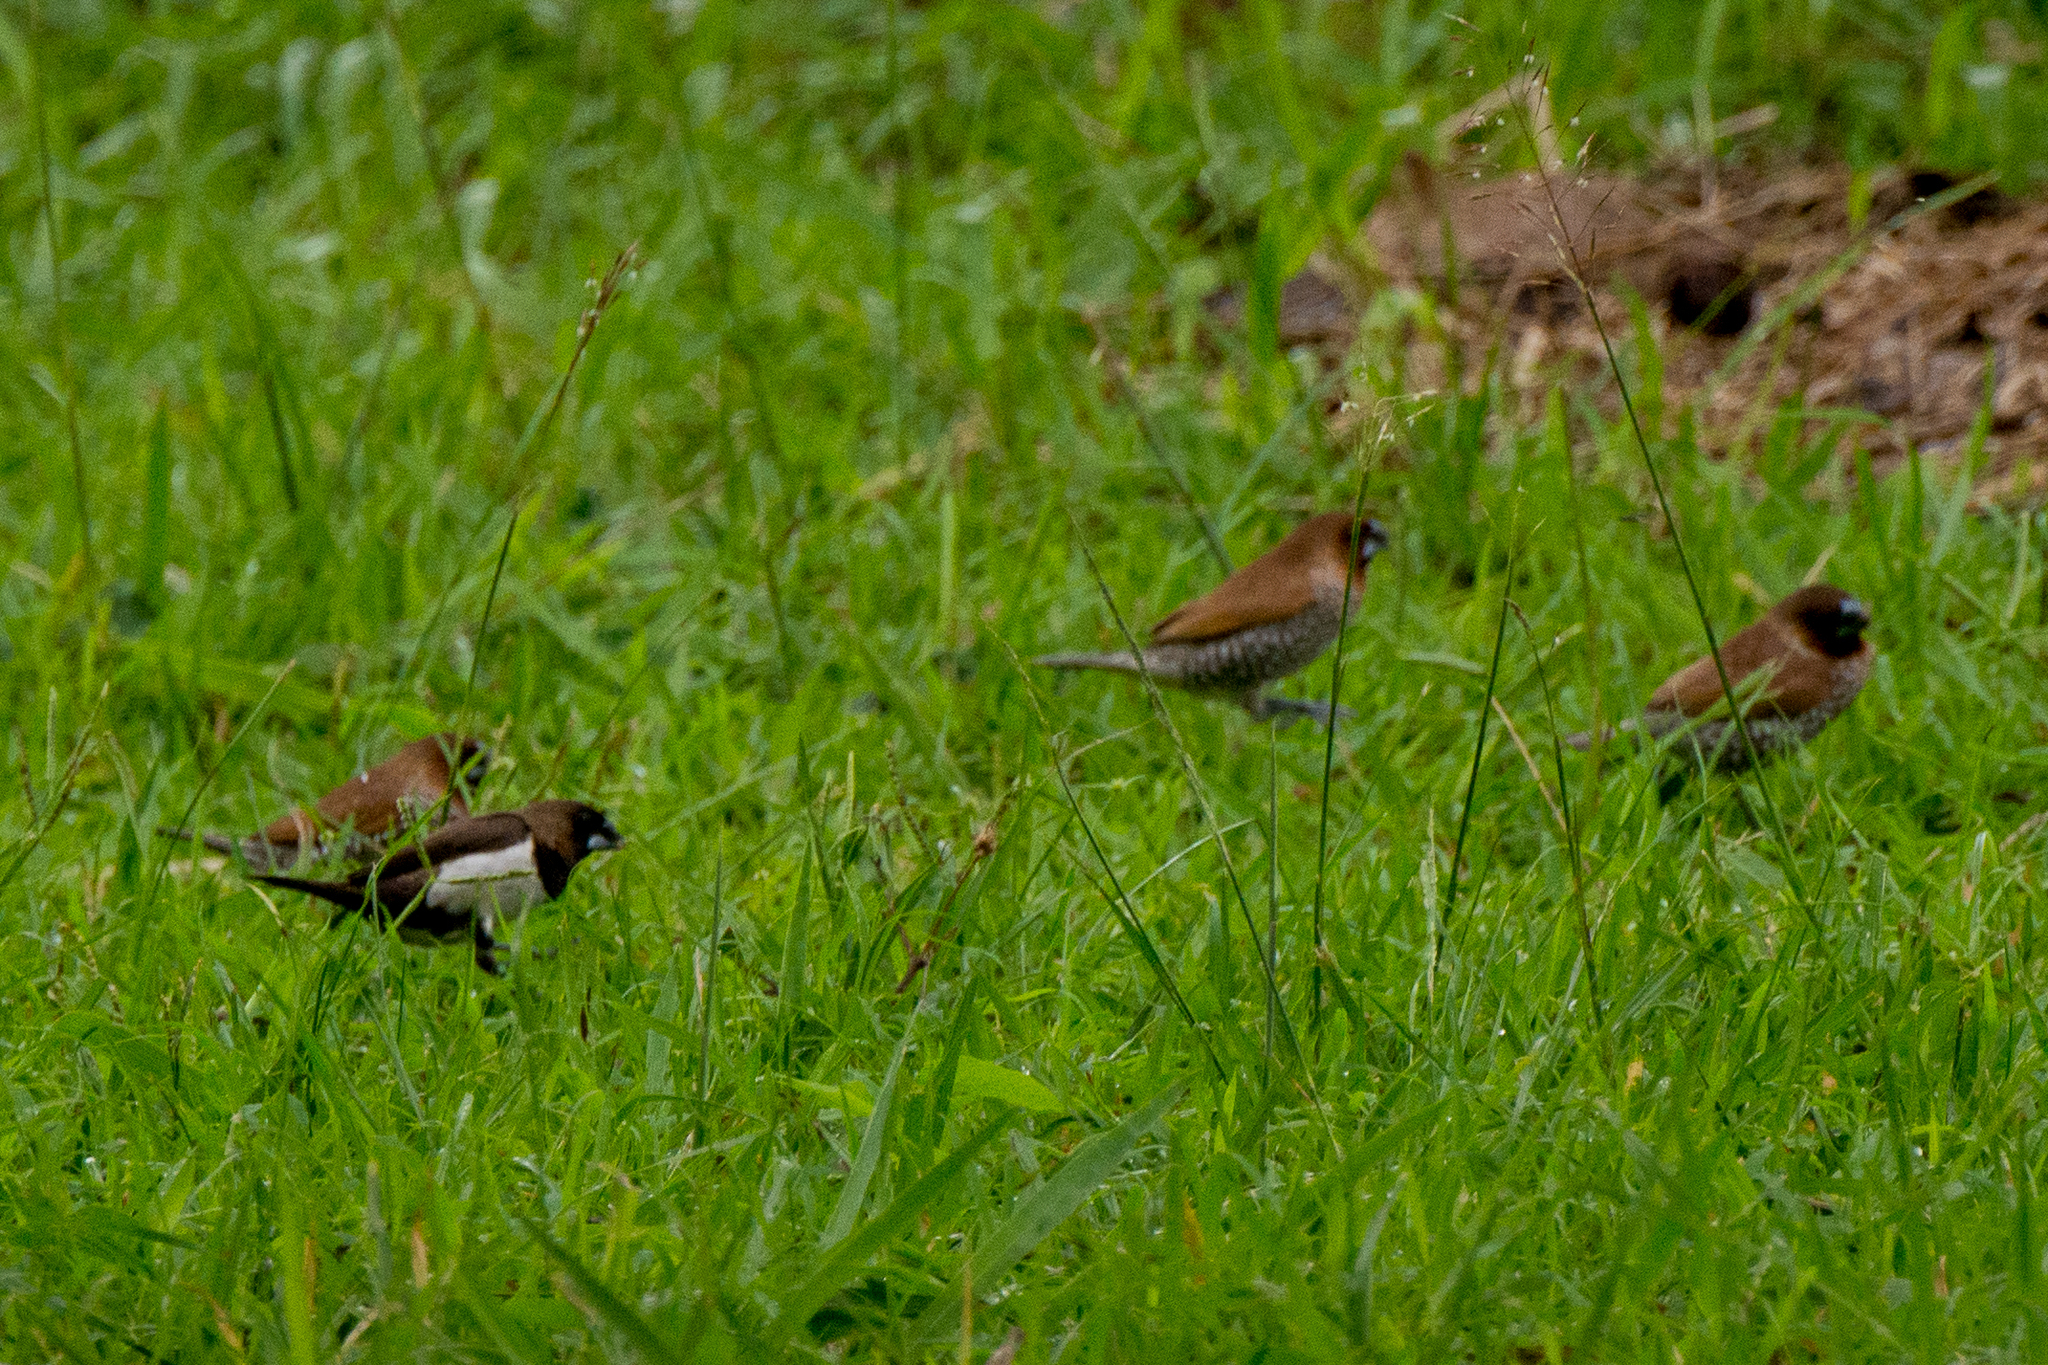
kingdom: Animalia
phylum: Chordata
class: Aves
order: Passeriformes
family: Estrildidae
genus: Lonchura
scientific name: Lonchura leucogastroides
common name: Javan munia
